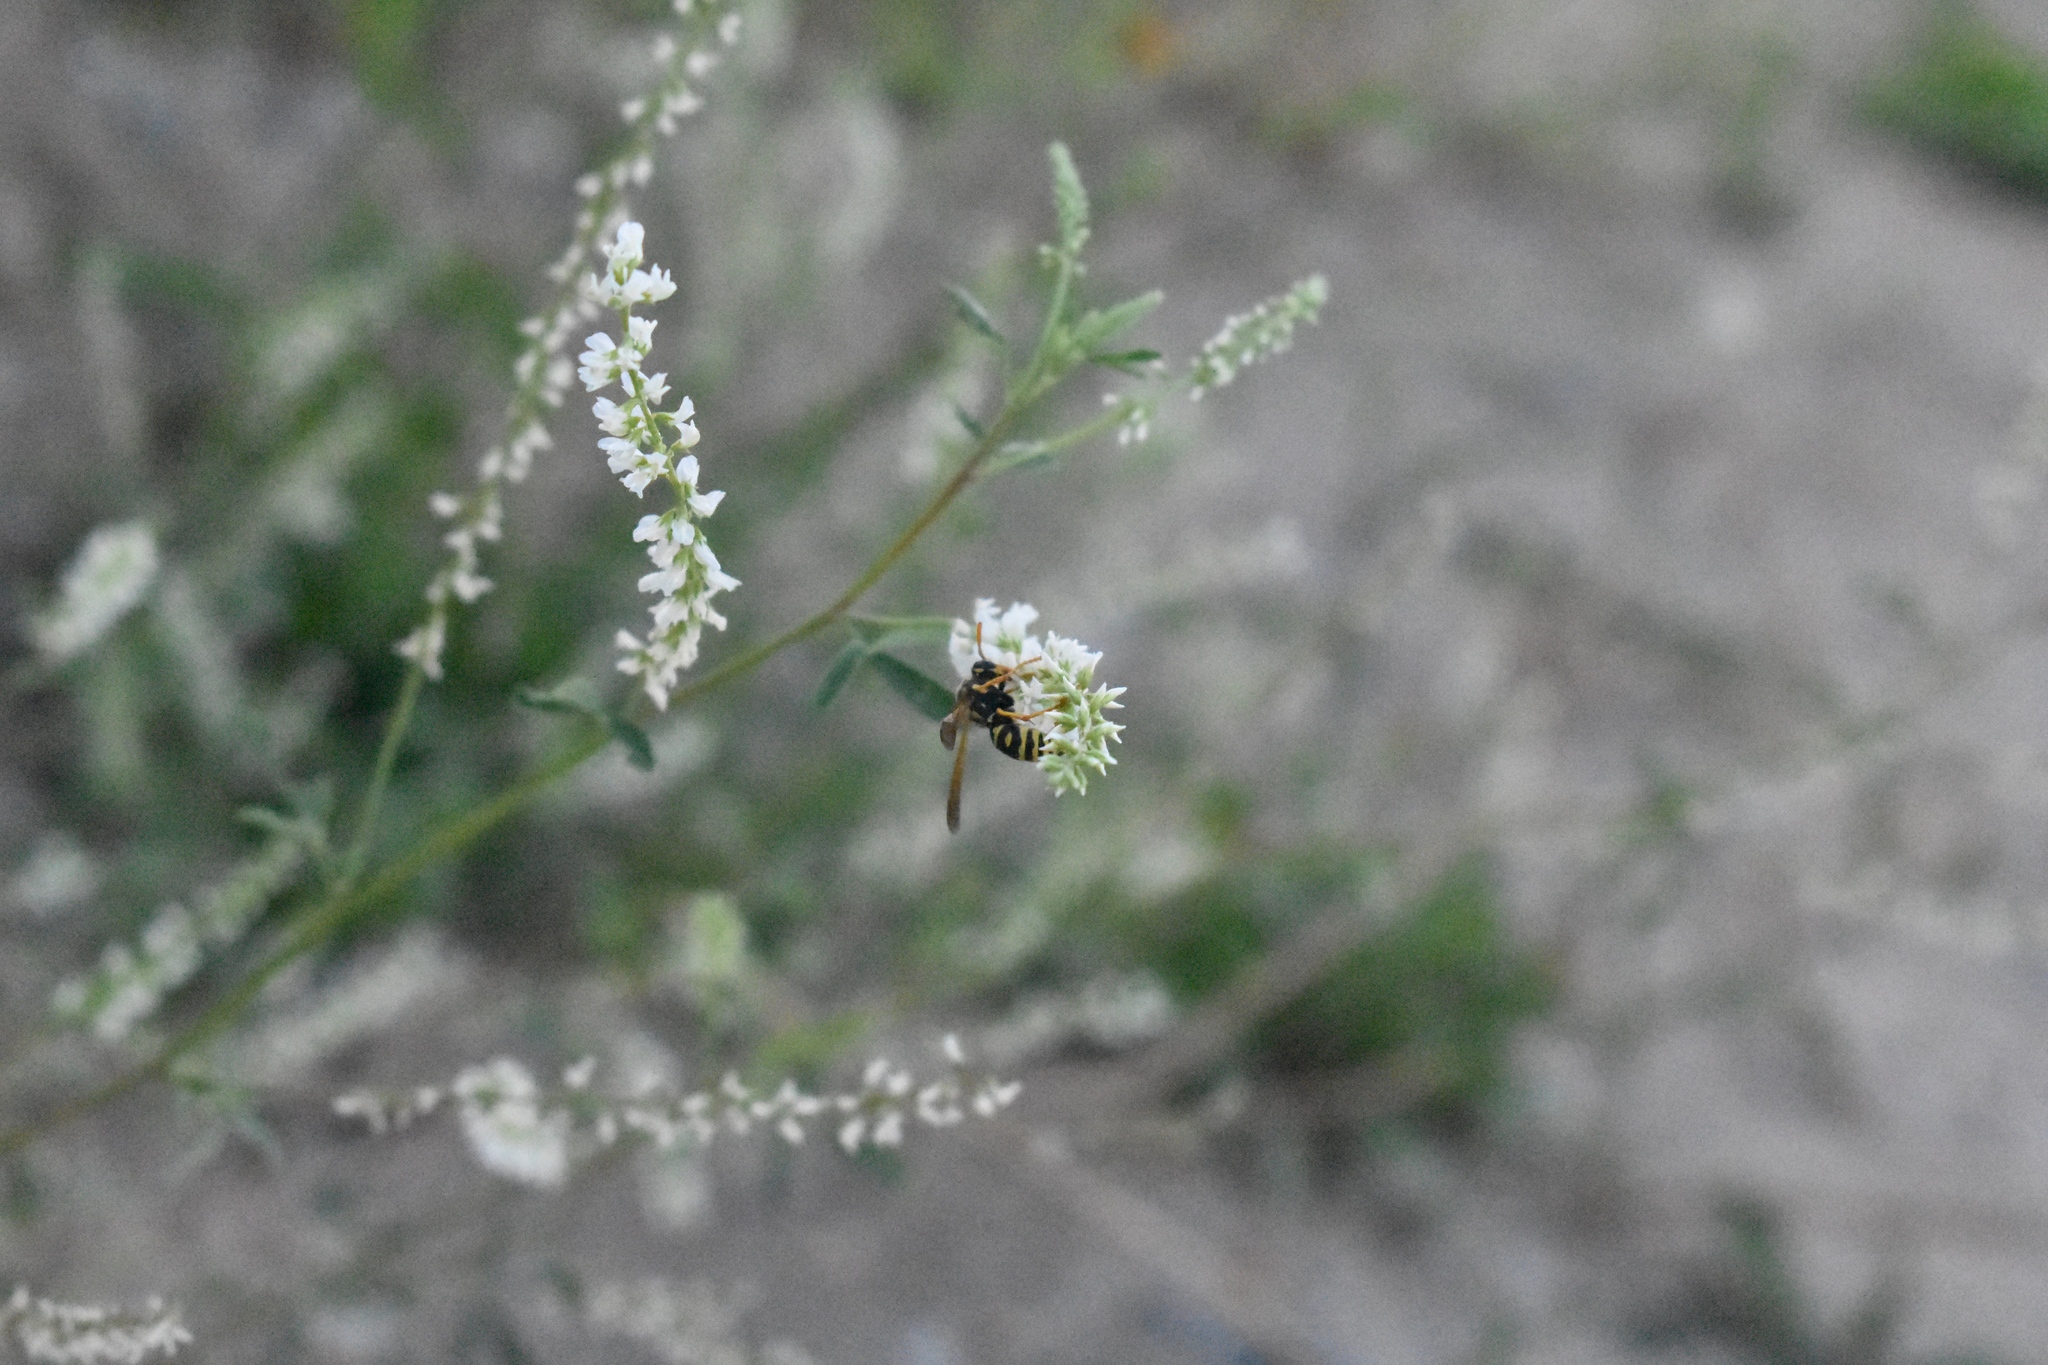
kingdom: Animalia
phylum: Arthropoda
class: Insecta
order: Hymenoptera
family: Eumenidae
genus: Polistes
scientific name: Polistes dominula
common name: Paper wasp
